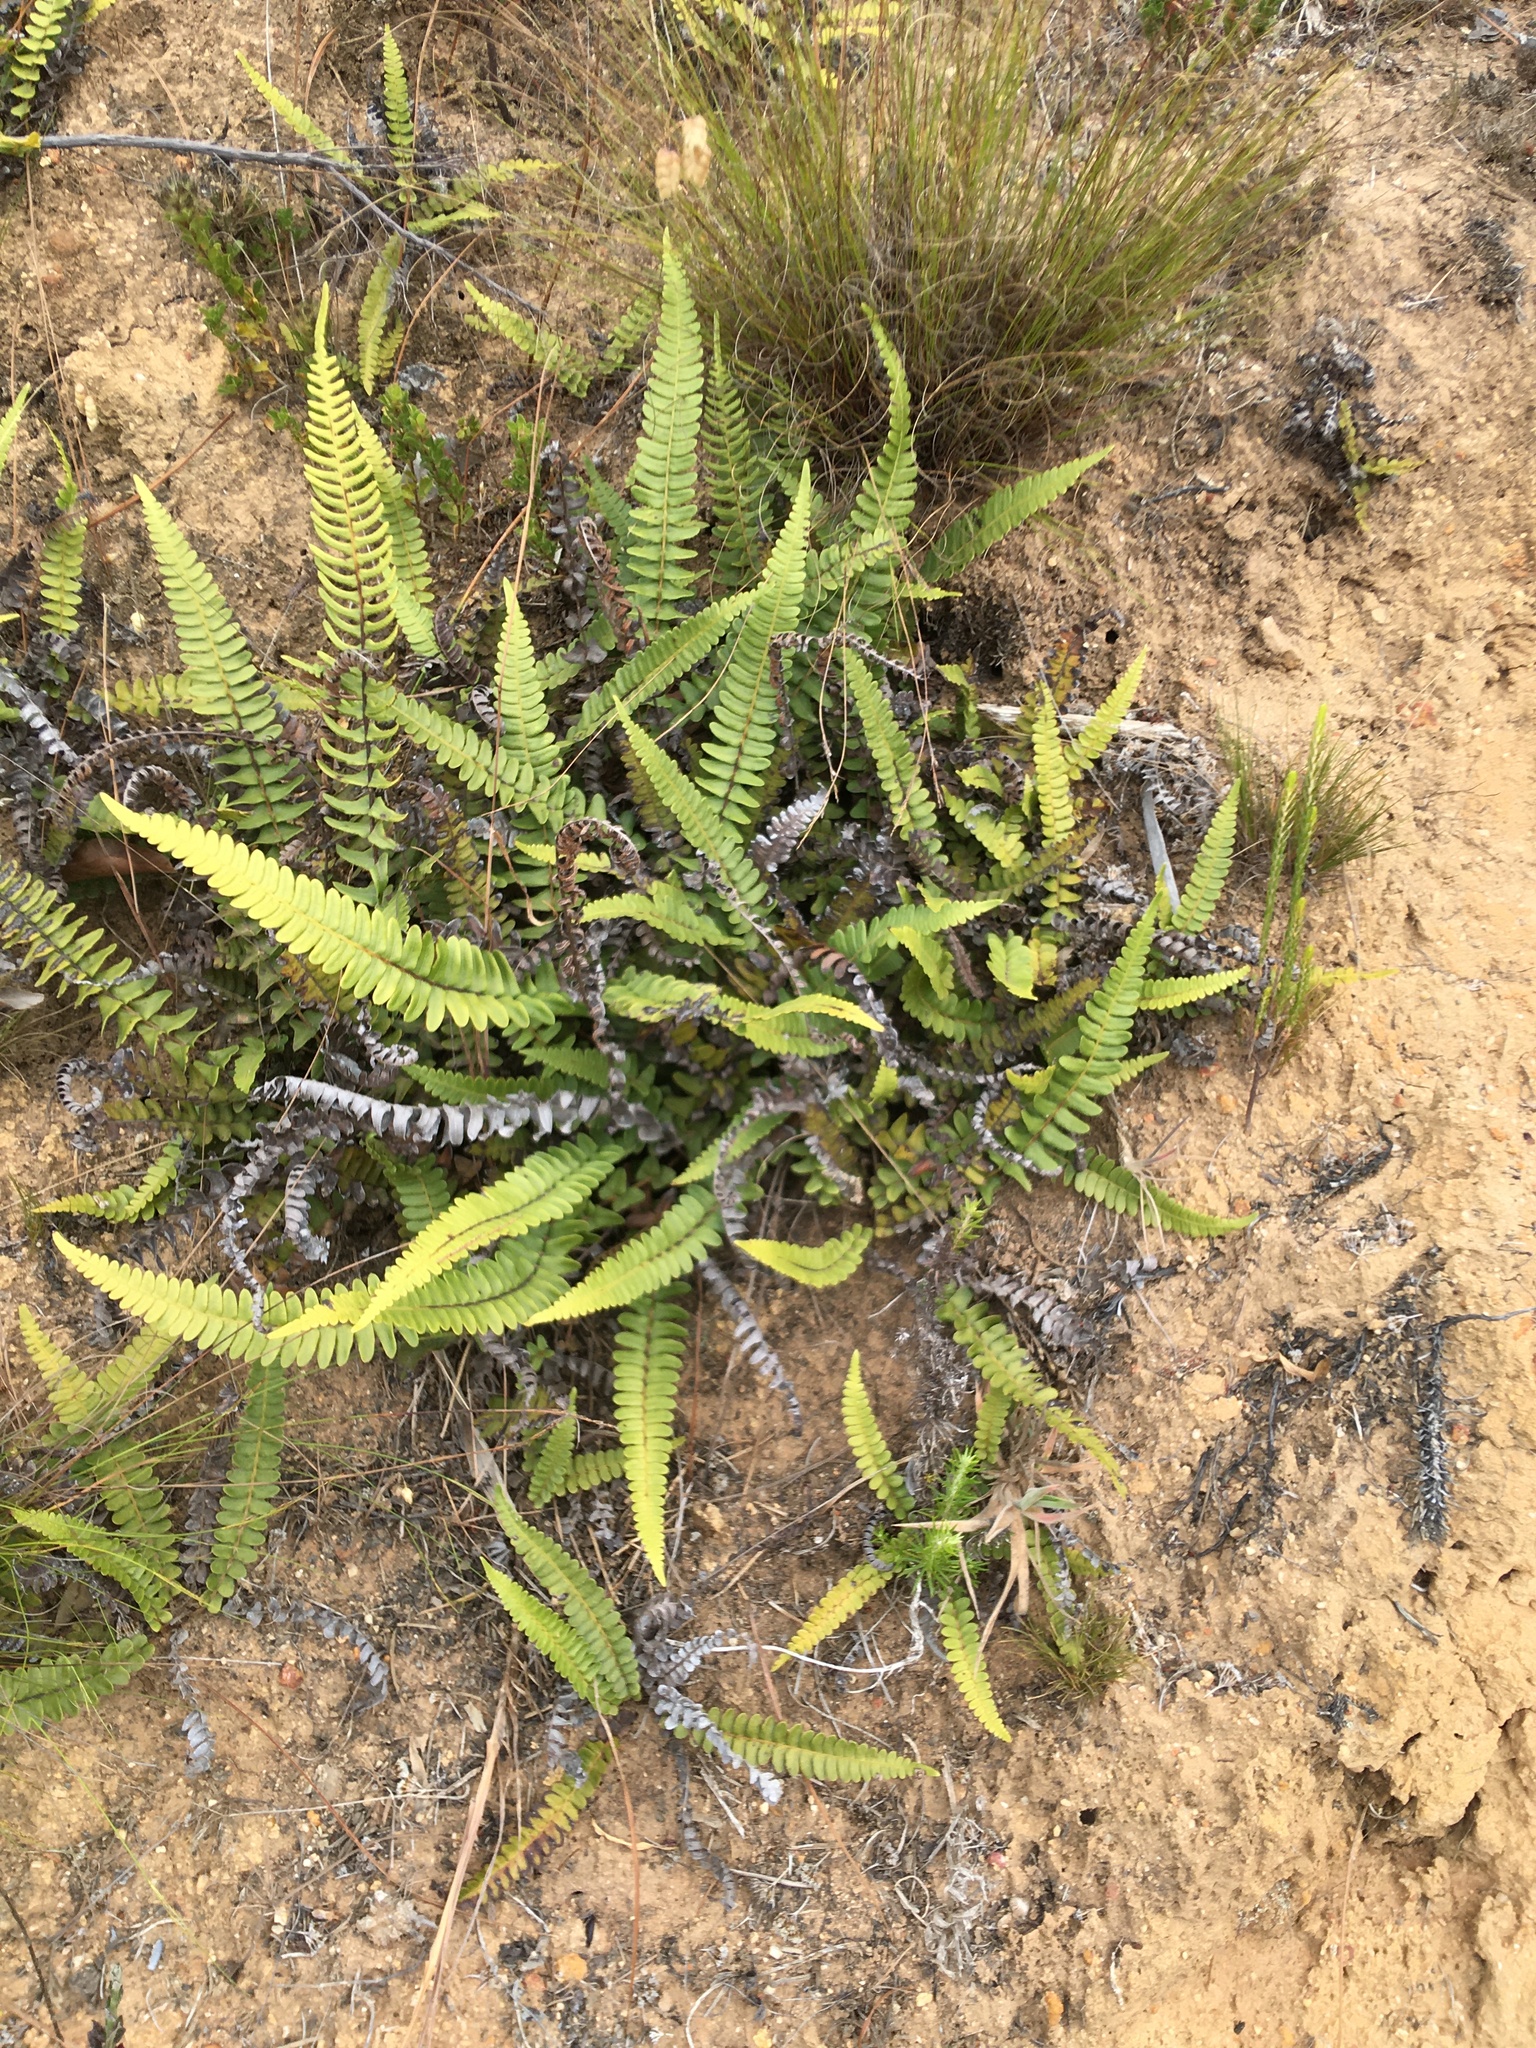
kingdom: Plantae
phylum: Tracheophyta
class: Polypodiopsida
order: Polypodiales
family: Blechnaceae
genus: Blechnum
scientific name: Blechnum australe
